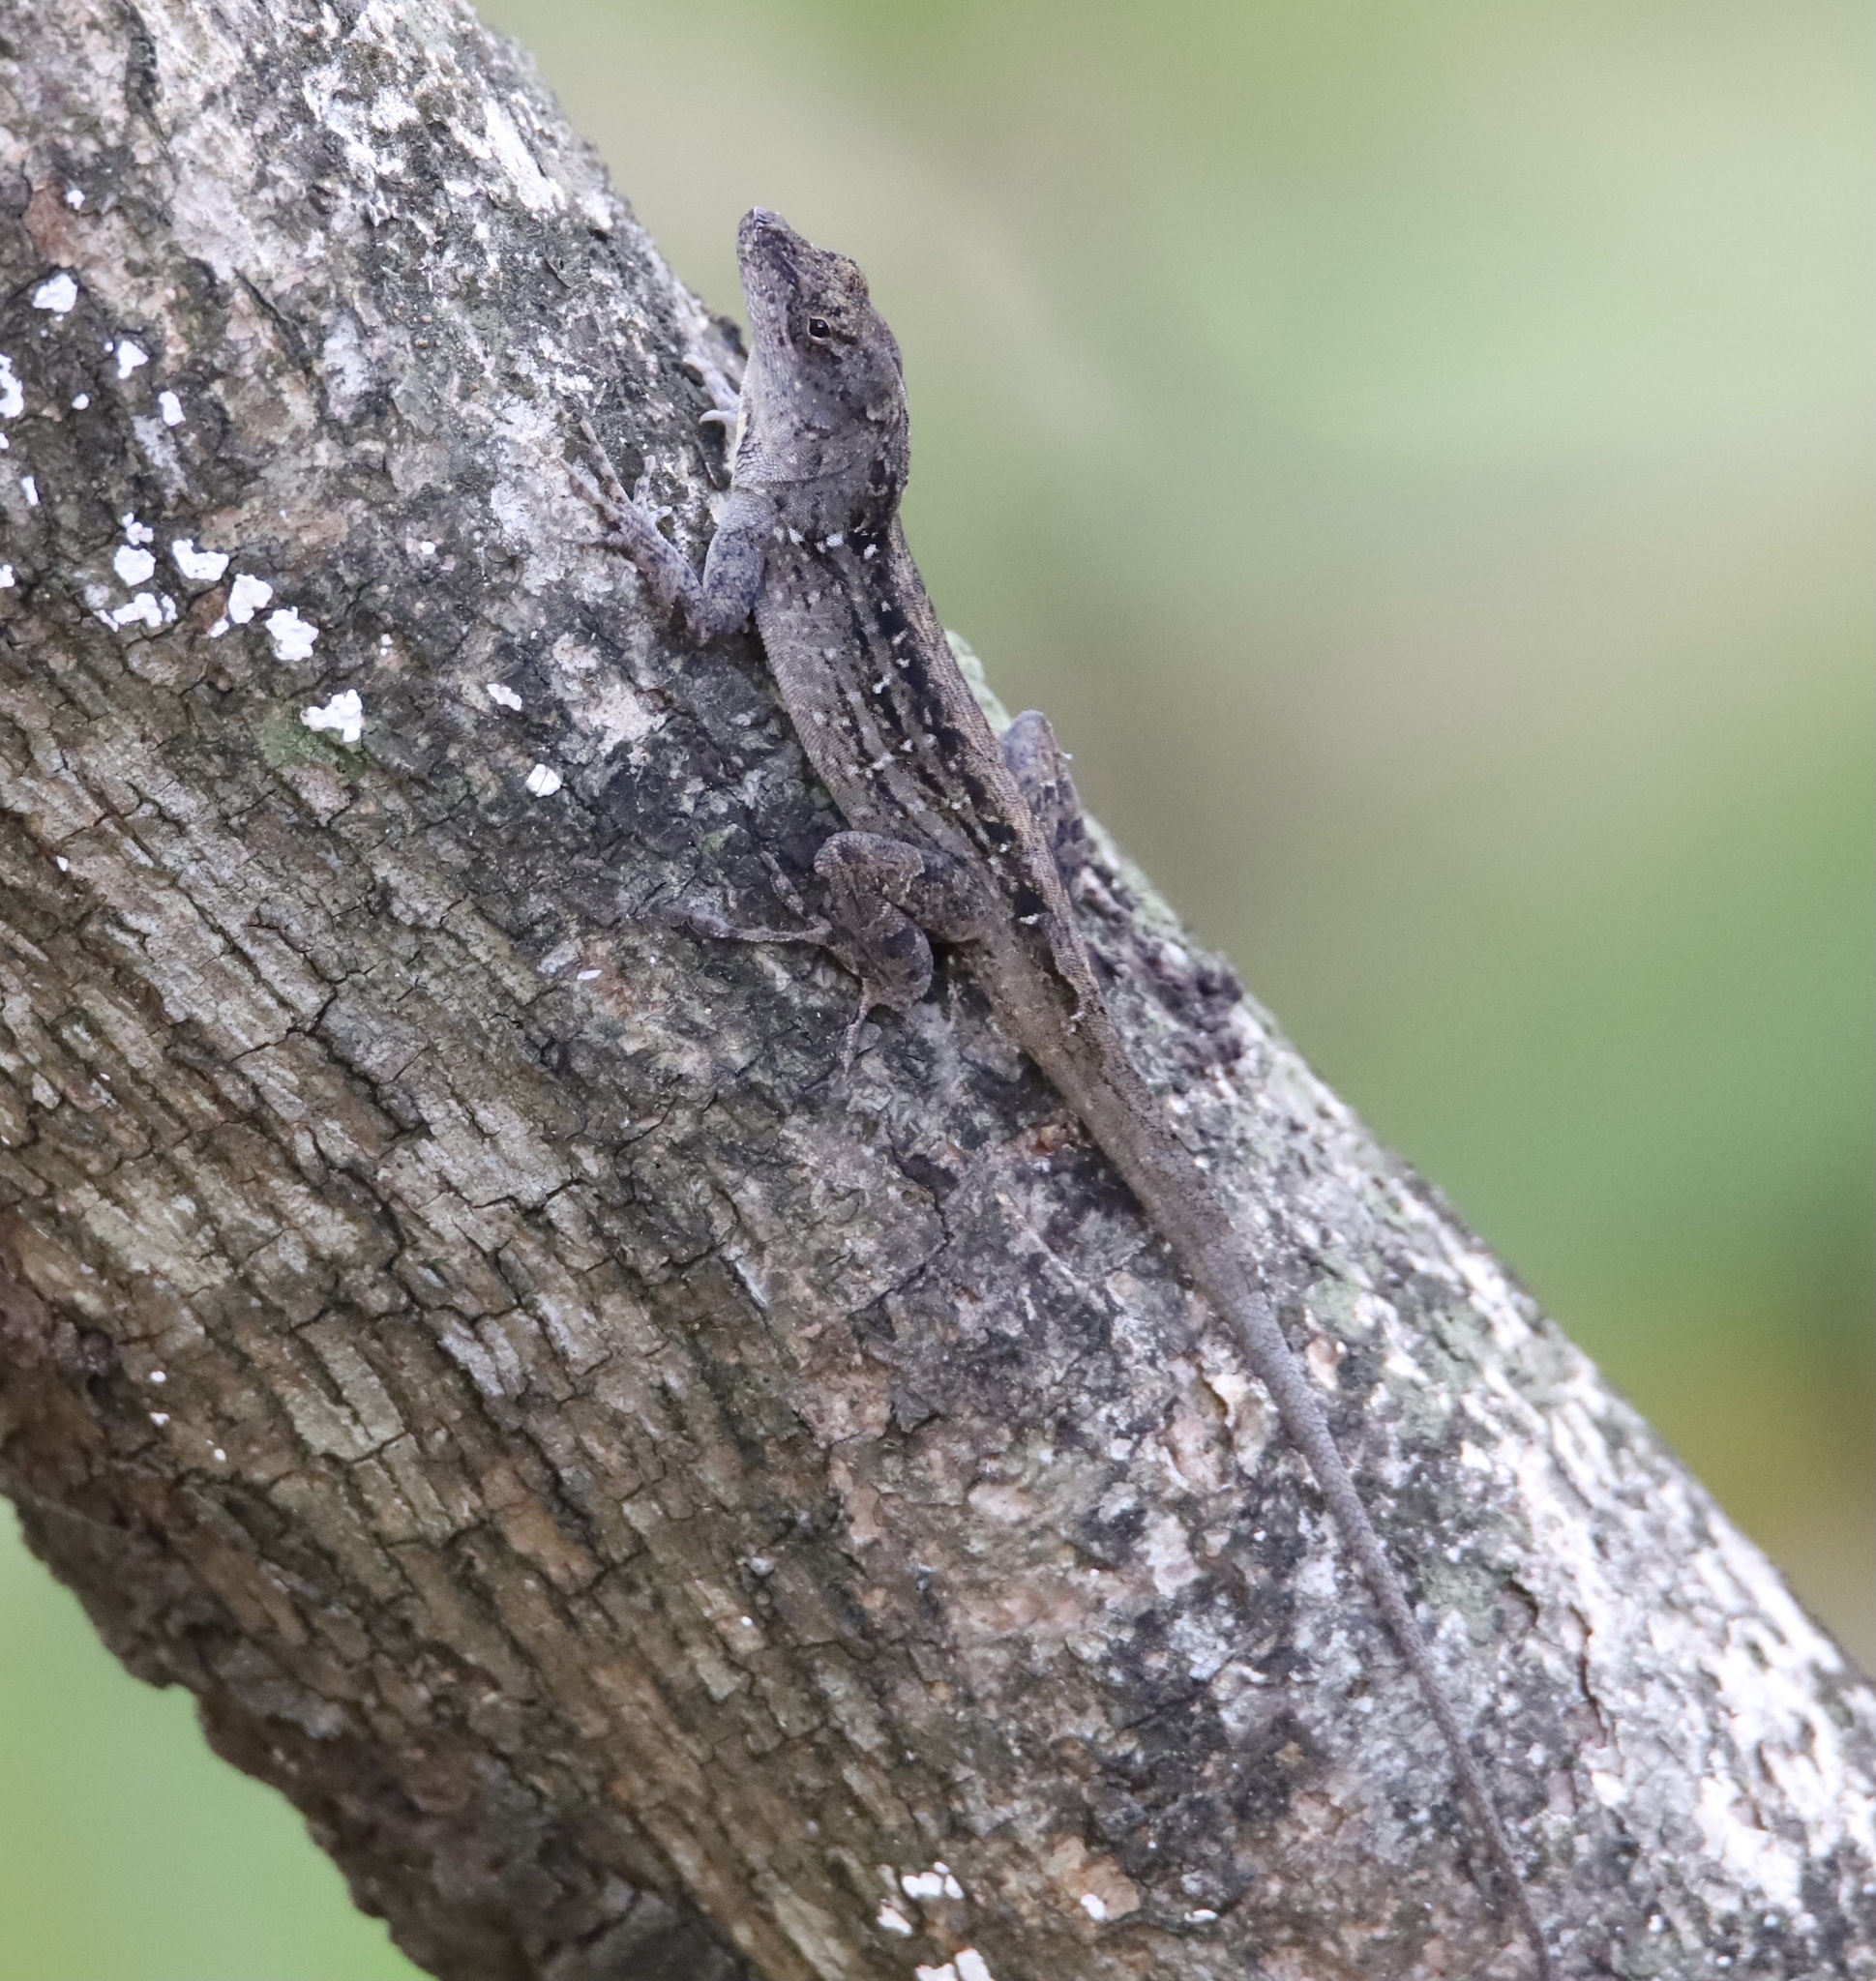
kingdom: Animalia
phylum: Chordata
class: Squamata
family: Dactyloidae
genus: Anolis
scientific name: Anolis sagrei
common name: Brown anole
